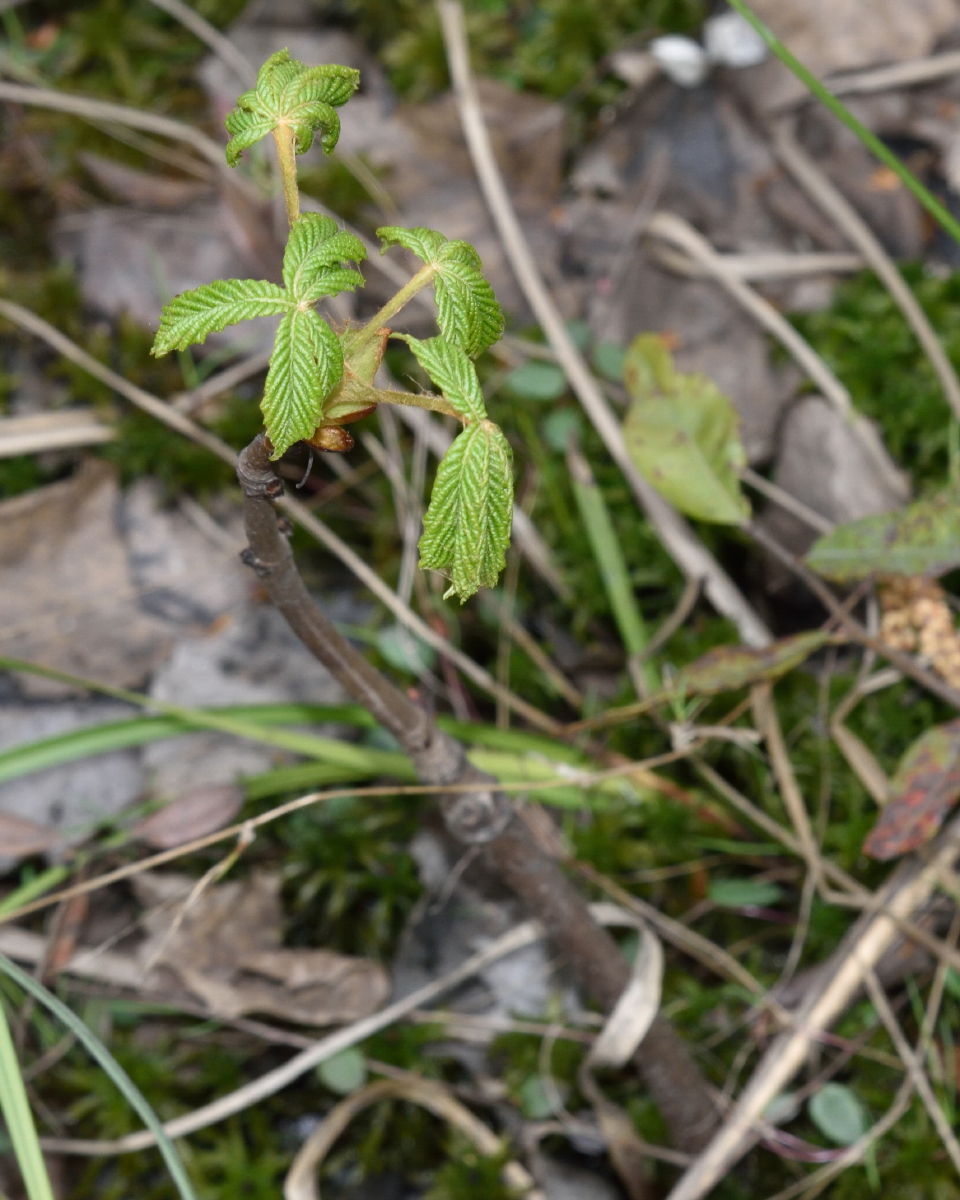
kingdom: Plantae
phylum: Tracheophyta
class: Magnoliopsida
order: Sapindales
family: Sapindaceae
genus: Aesculus
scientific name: Aesculus hippocastanum
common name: Horse-chestnut
